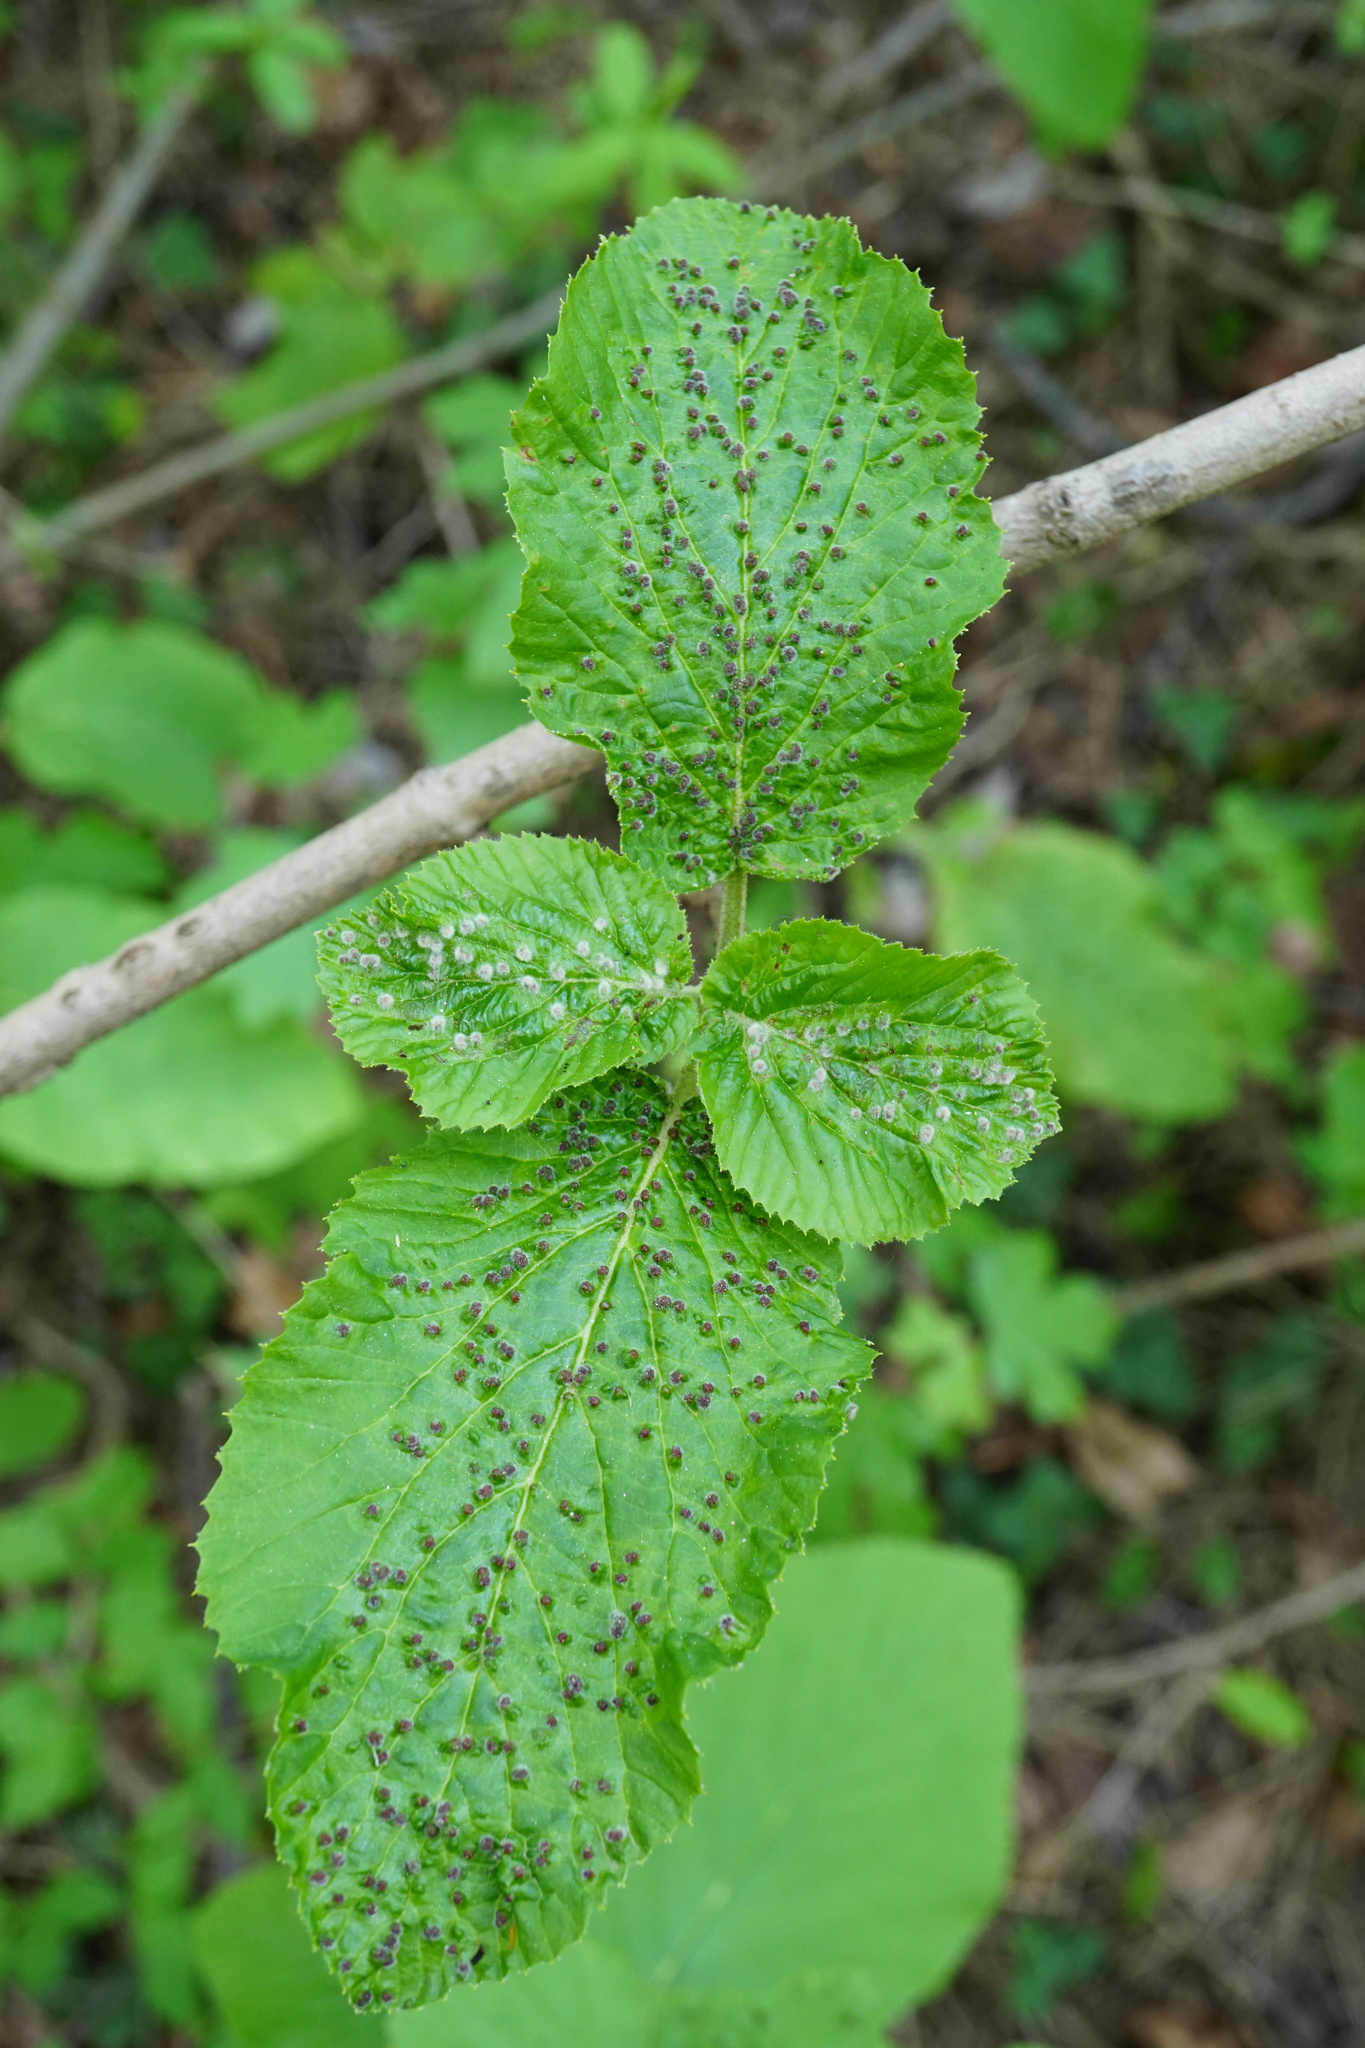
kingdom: Plantae
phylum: Tracheophyta
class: Magnoliopsida
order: Dipsacales
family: Viburnaceae
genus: Viburnum
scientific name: Viburnum lantana
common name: Wayfaring tree
